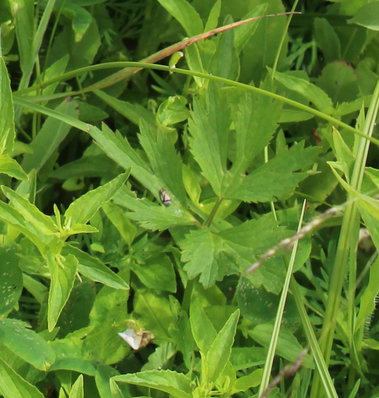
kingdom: Plantae
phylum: Tracheophyta
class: Magnoliopsida
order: Ranunculales
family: Ranunculaceae
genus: Ranunculus
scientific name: Ranunculus repens
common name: Creeping buttercup
